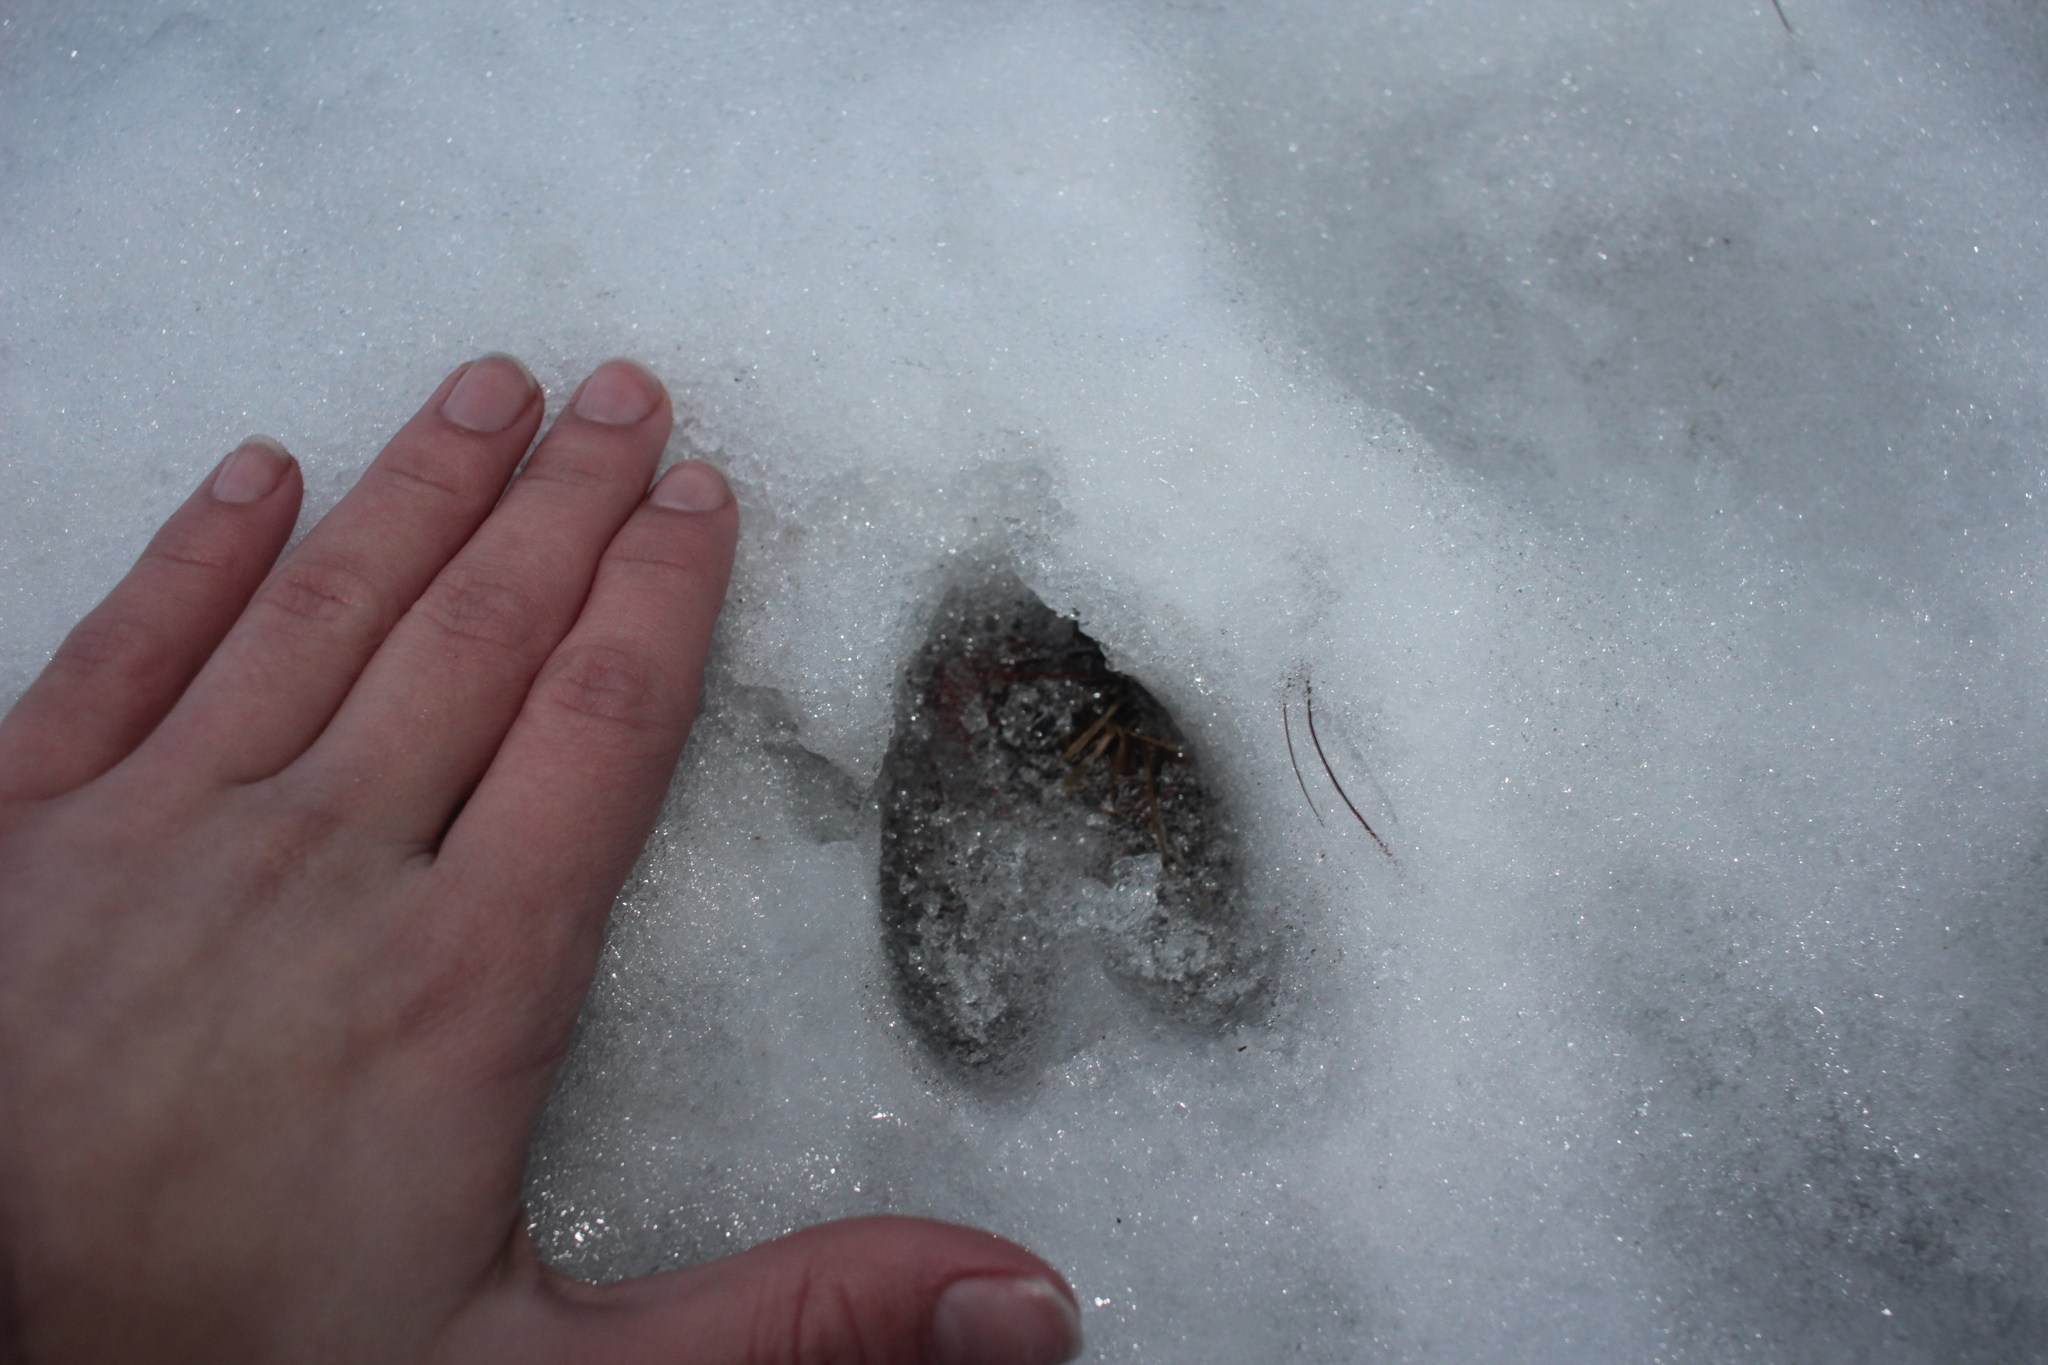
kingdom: Animalia
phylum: Chordata
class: Mammalia
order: Artiodactyla
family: Cervidae
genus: Odocoileus
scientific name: Odocoileus virginianus
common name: White-tailed deer
